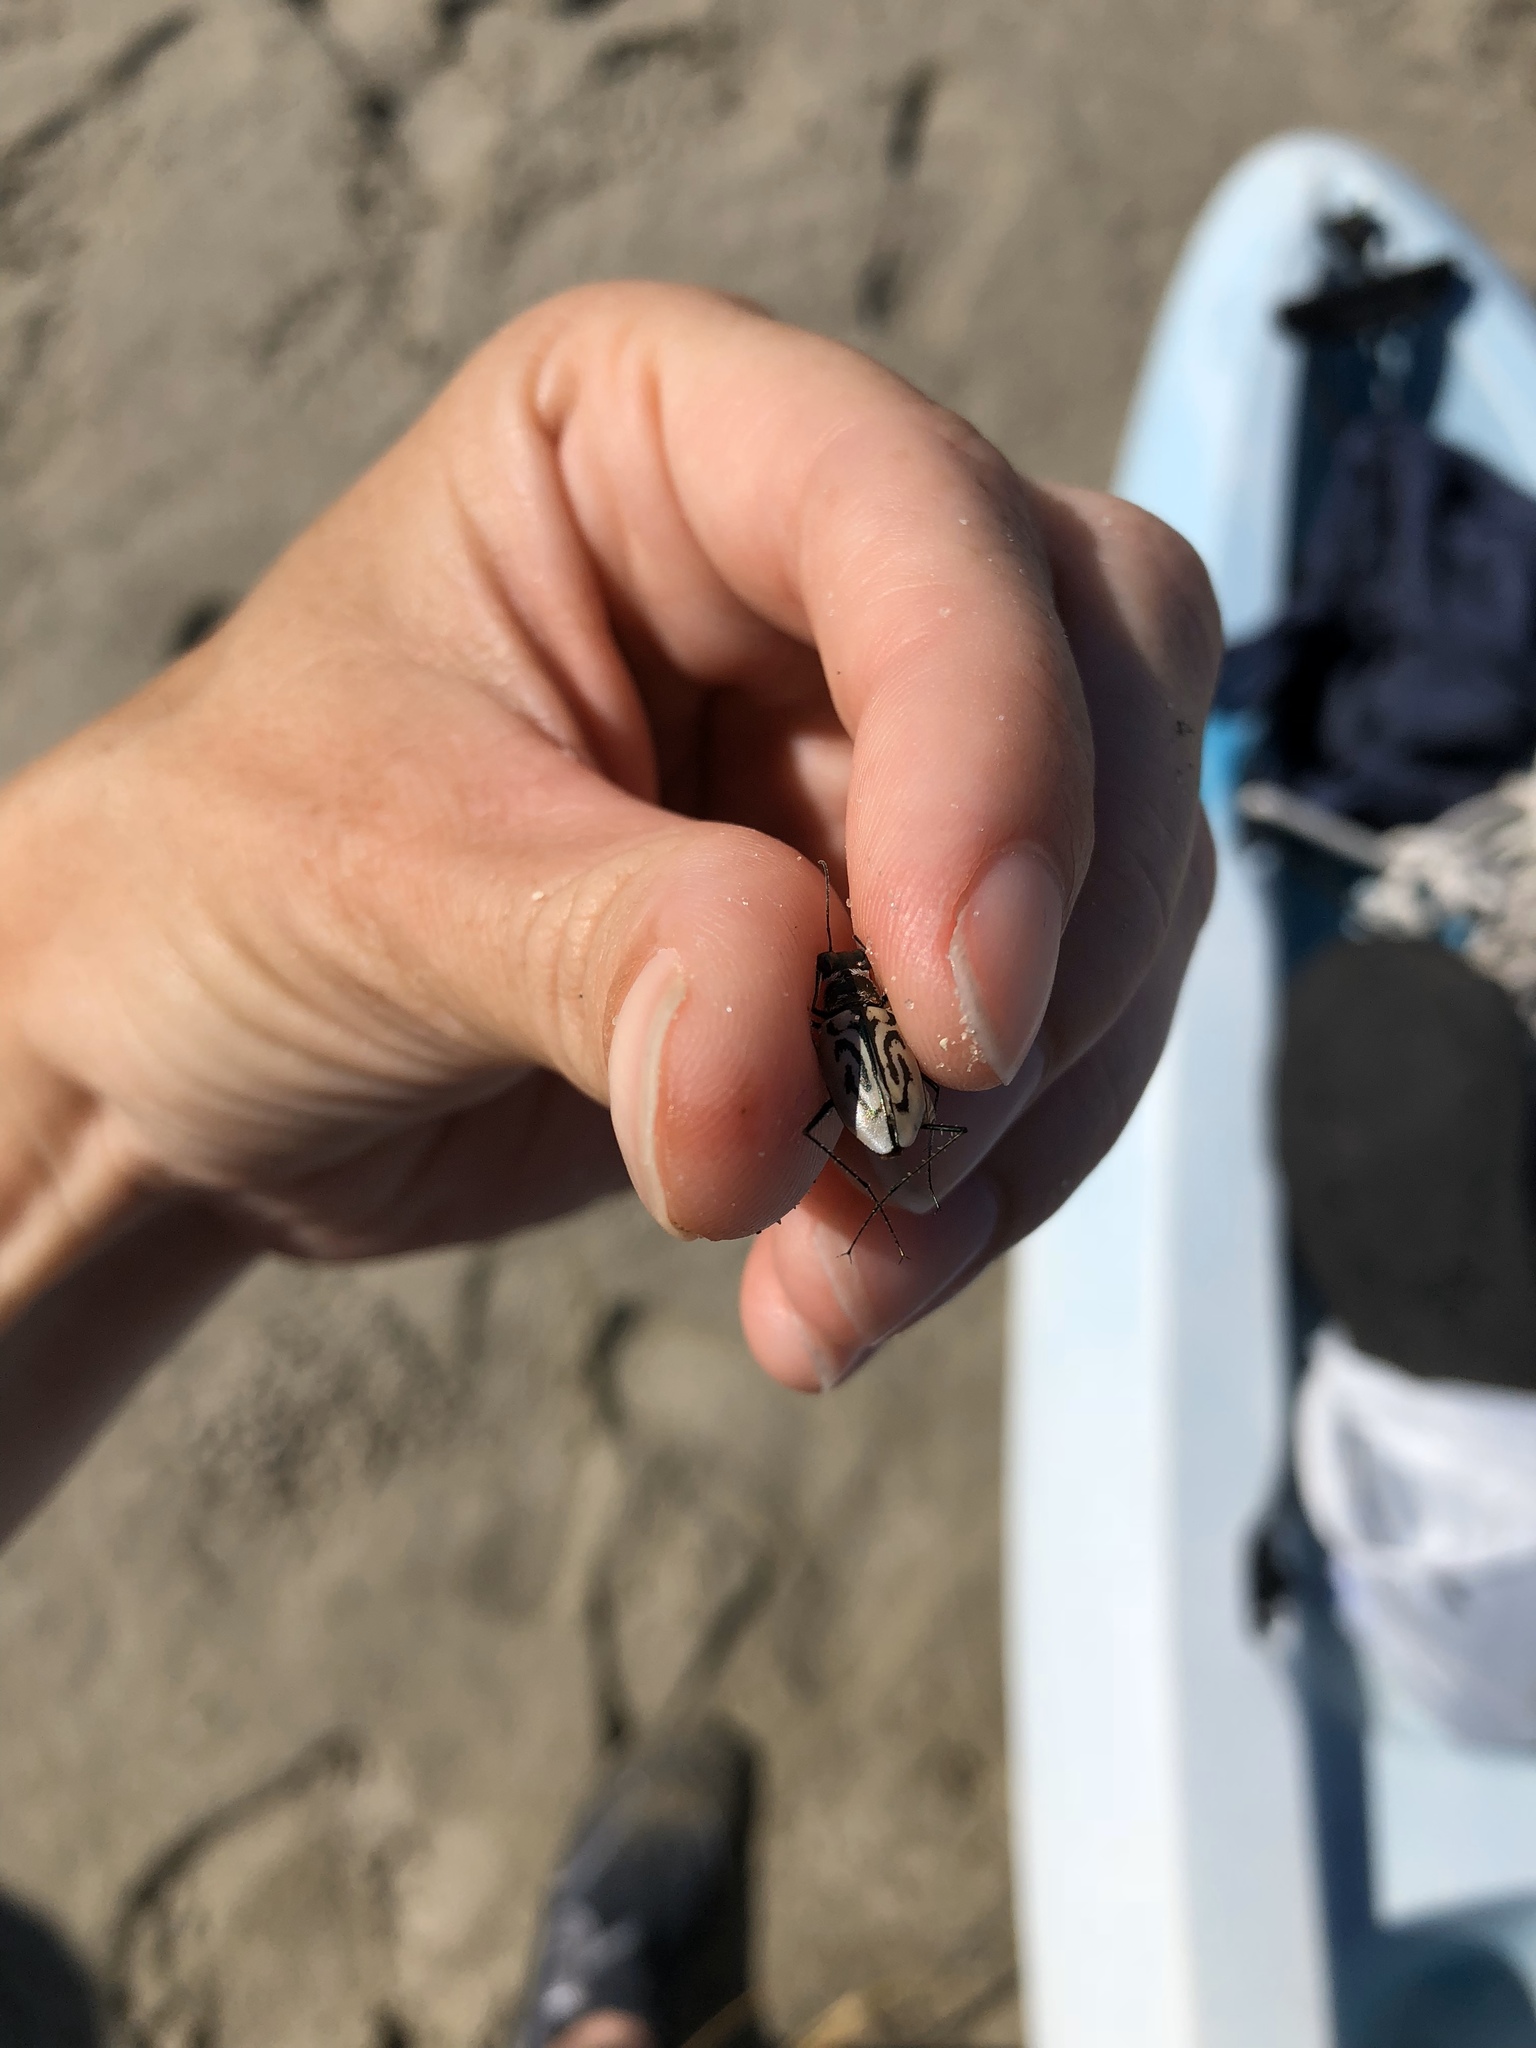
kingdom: Animalia
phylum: Arthropoda
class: Insecta
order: Coleoptera
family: Carabidae
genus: Habroscelimorpha
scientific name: Habroscelimorpha dorsalis
